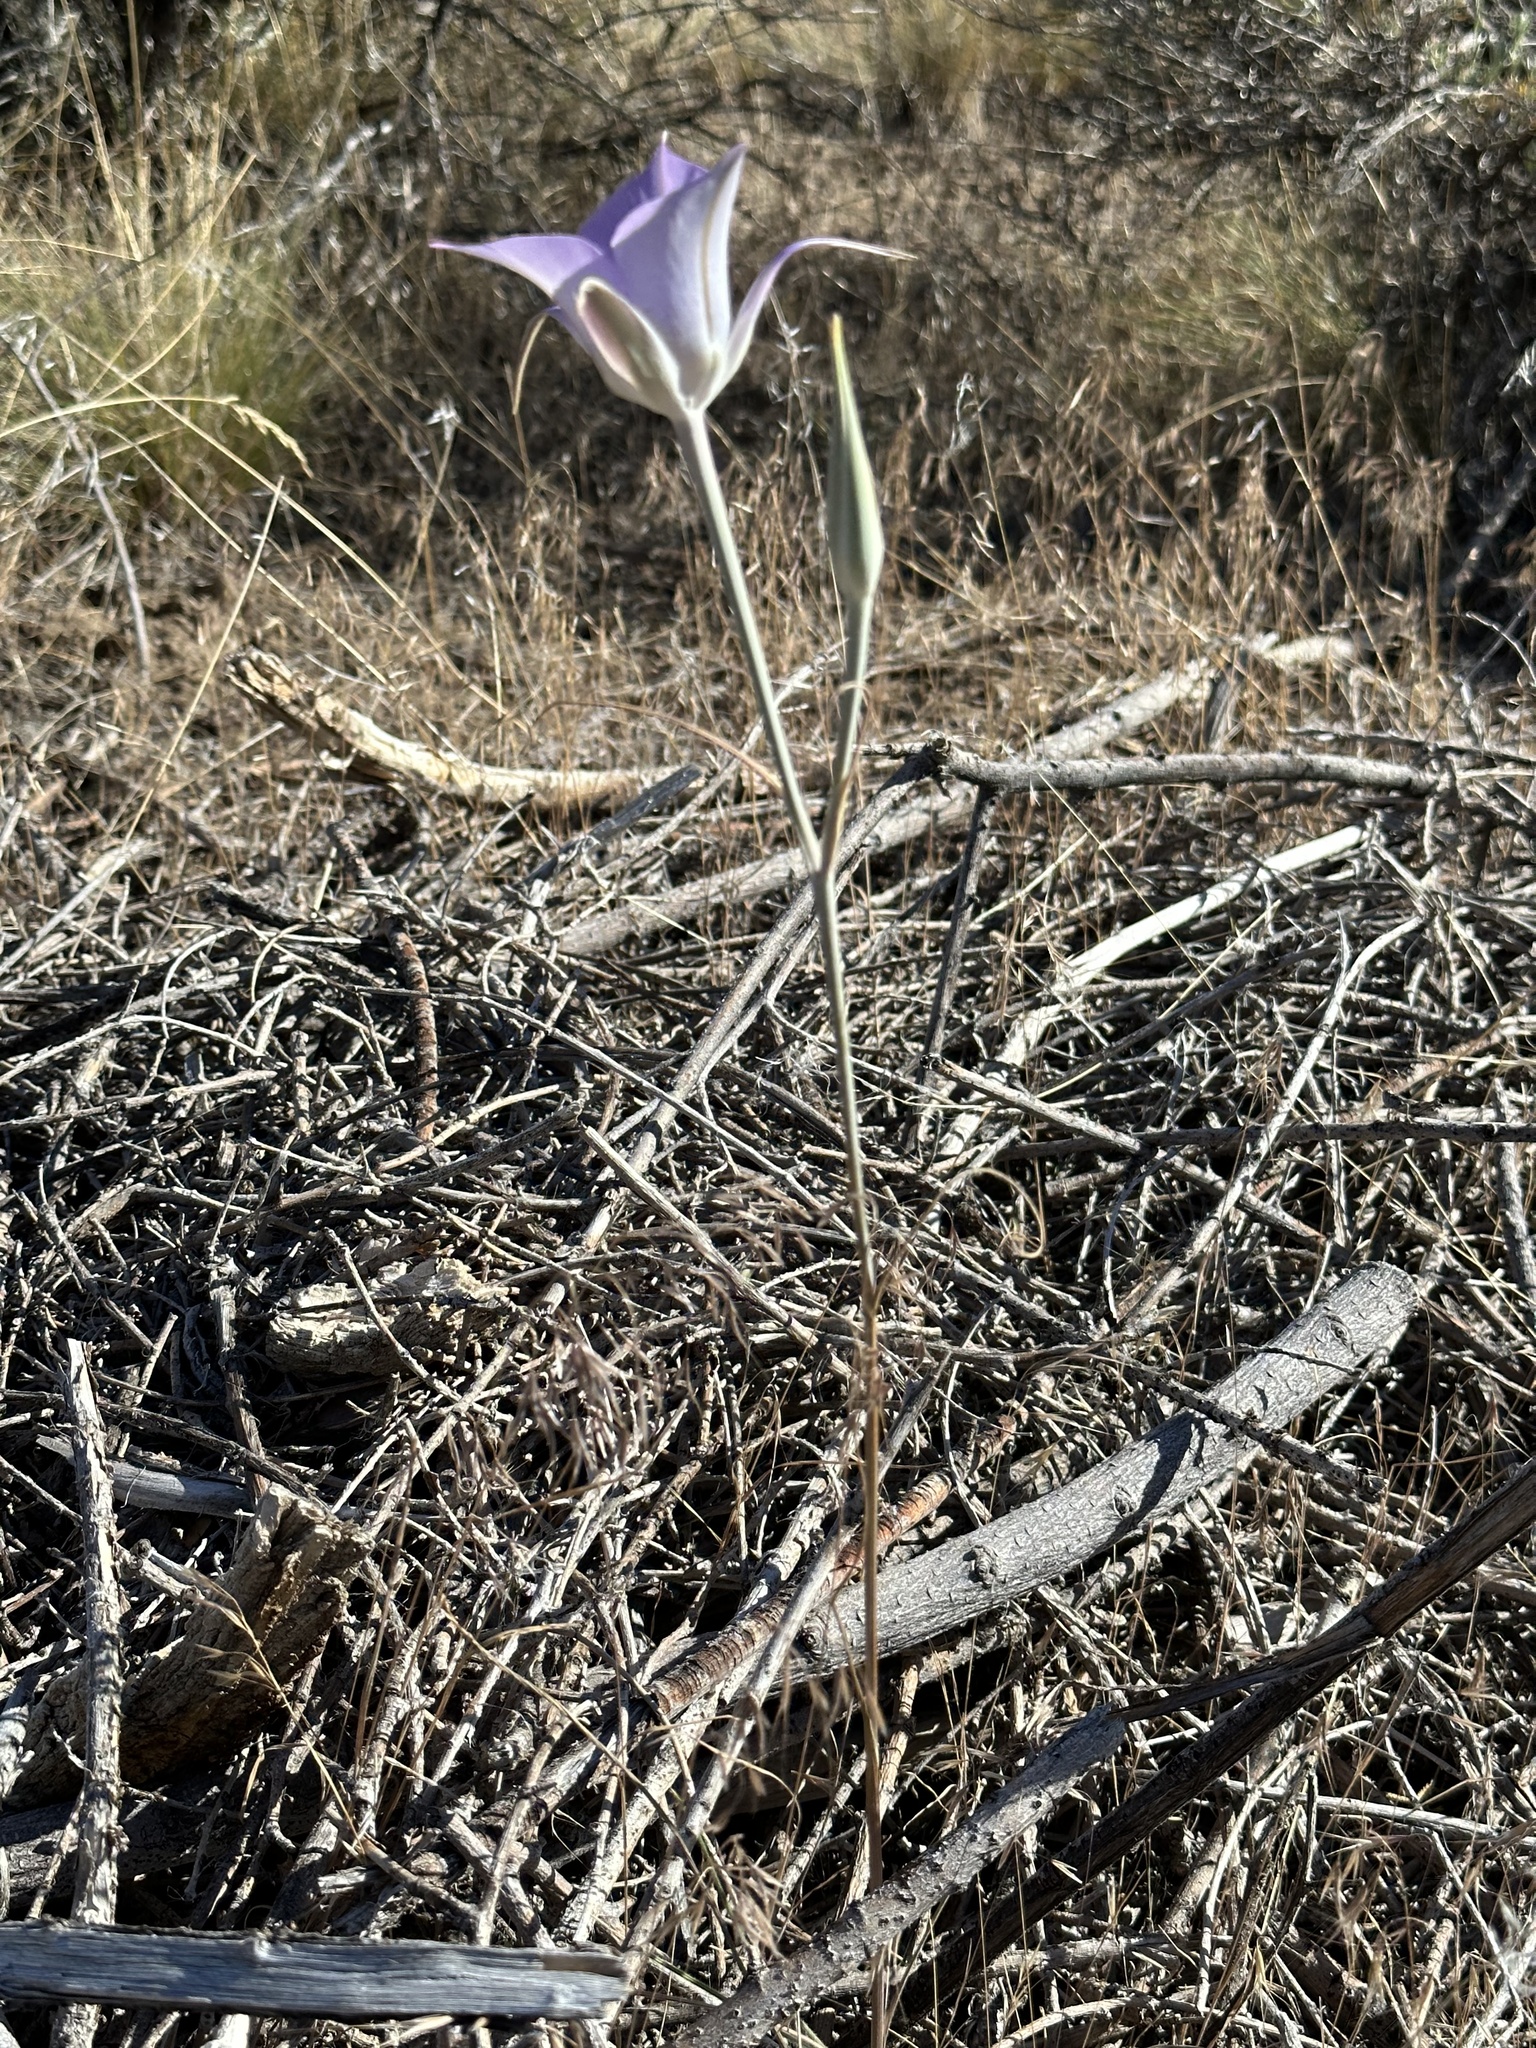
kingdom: Plantae
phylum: Tracheophyta
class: Liliopsida
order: Liliales
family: Liliaceae
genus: Calochortus
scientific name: Calochortus macrocarpus
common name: Green-band mariposa lily
